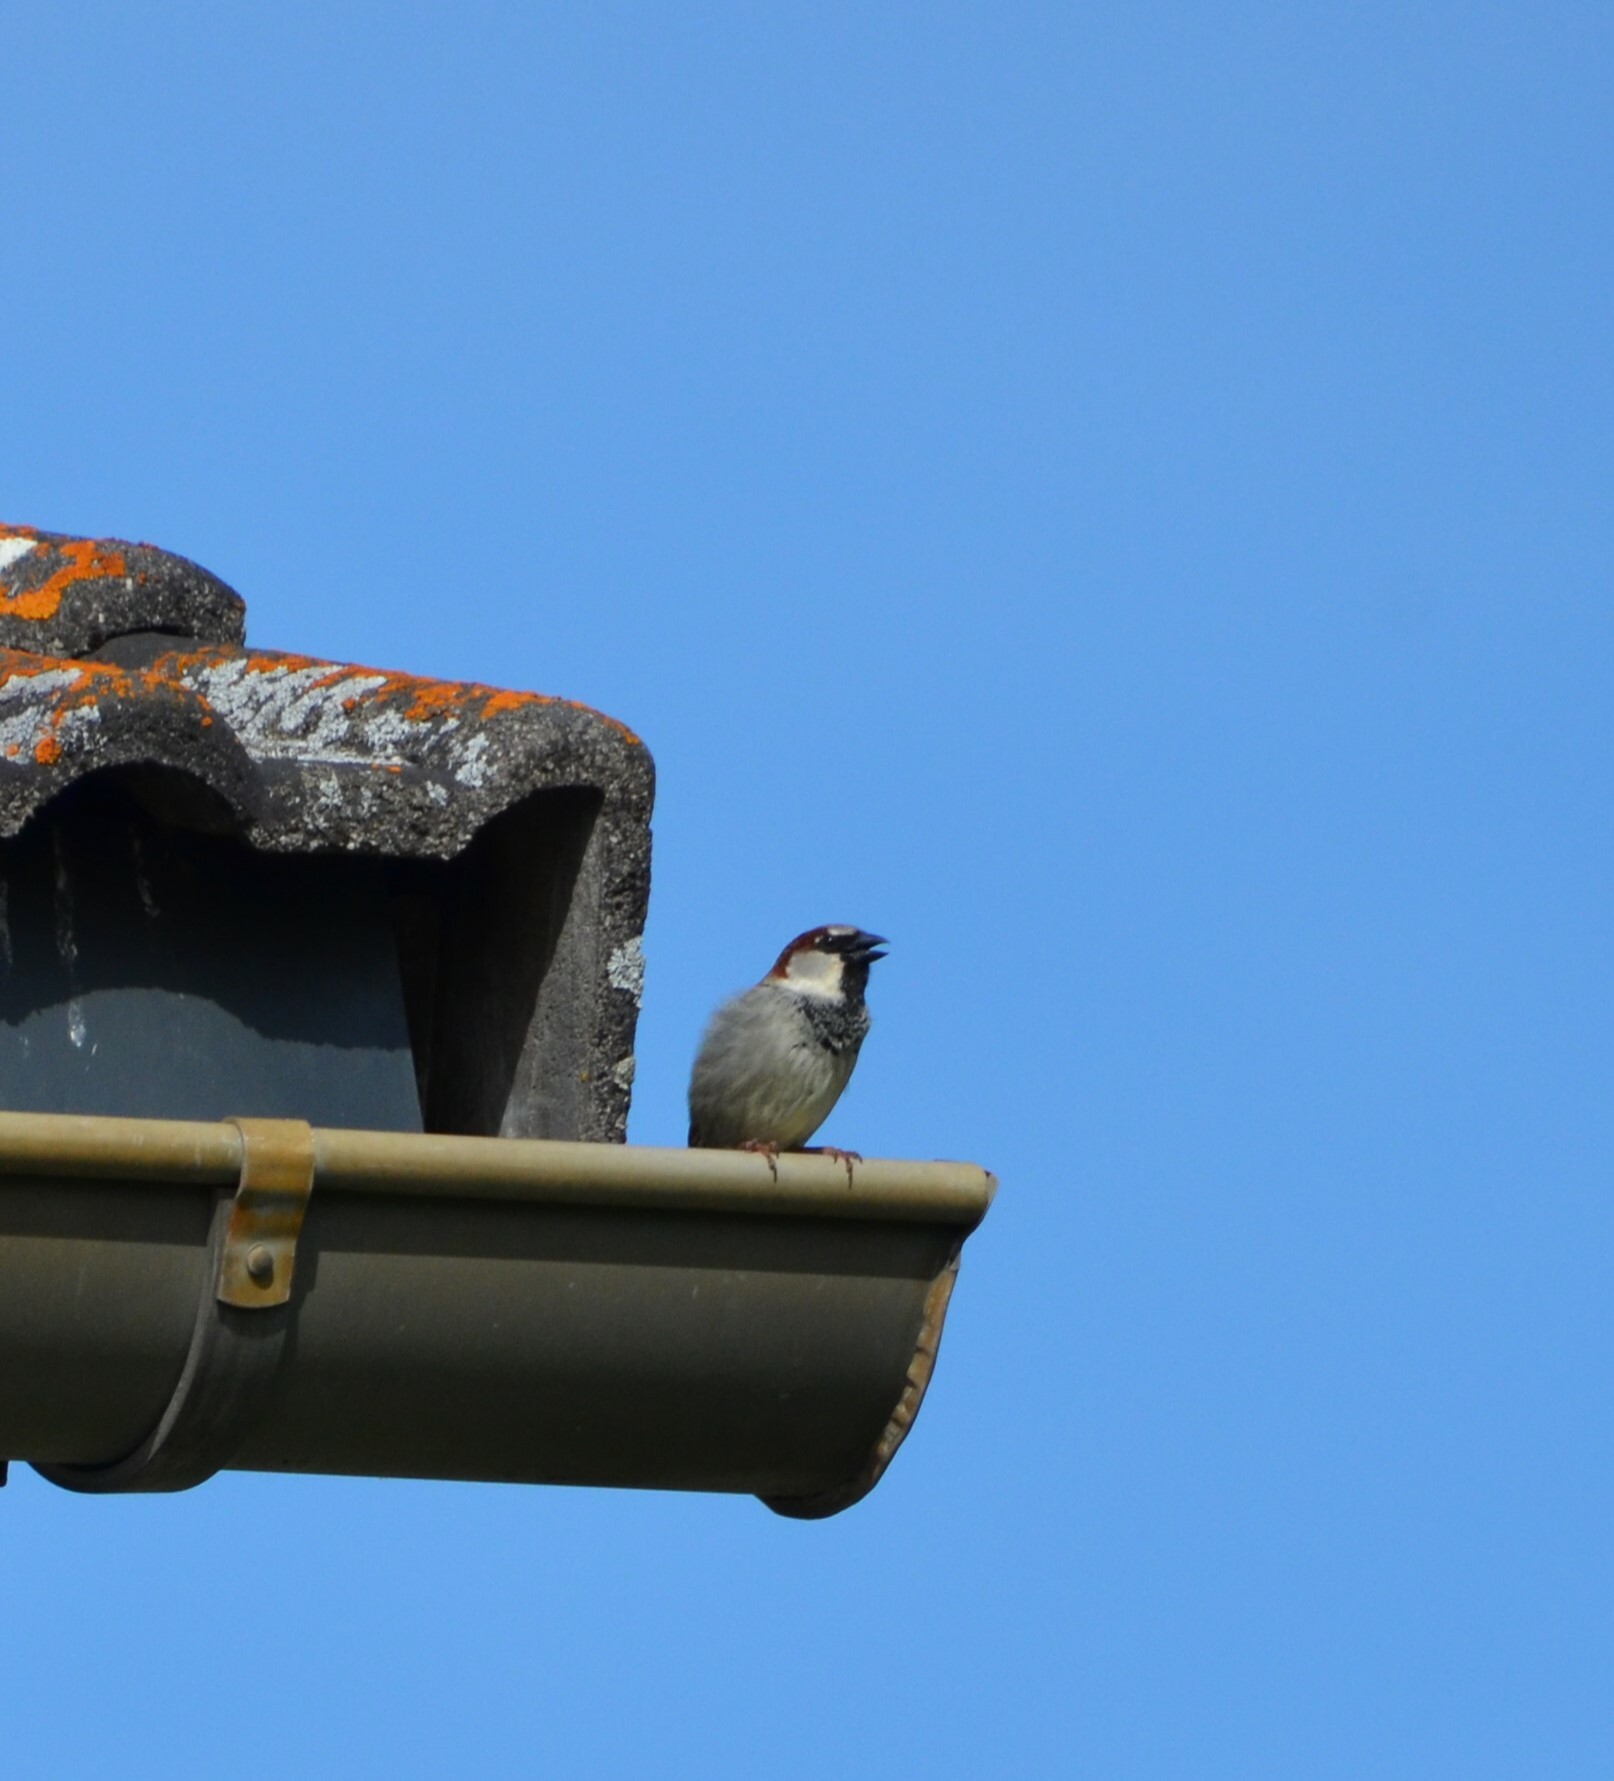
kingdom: Animalia
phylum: Chordata
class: Aves
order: Passeriformes
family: Passeridae
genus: Passer
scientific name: Passer domesticus
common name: House sparrow
